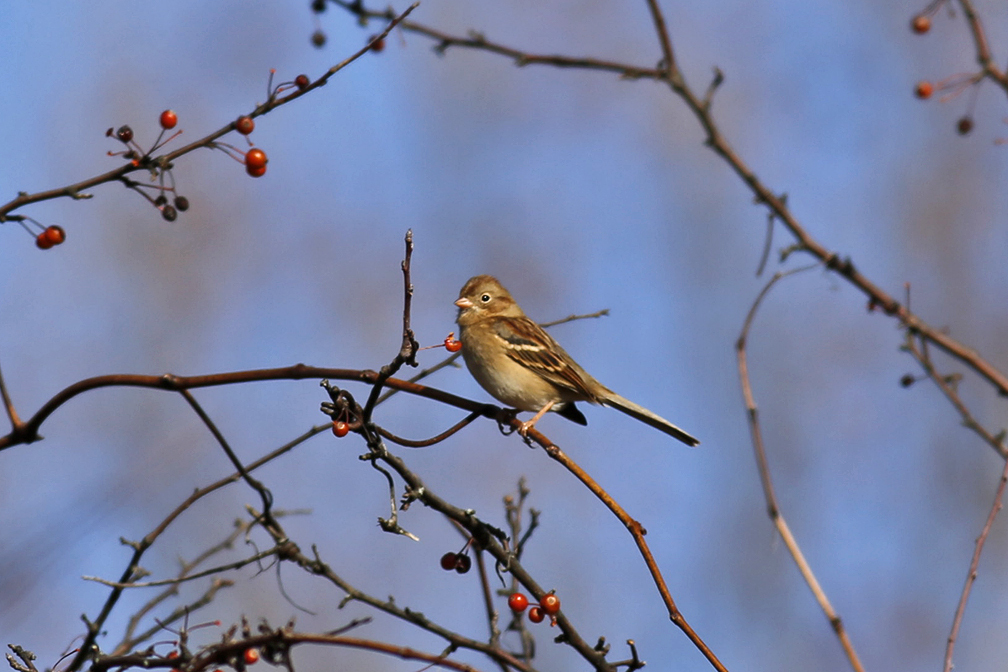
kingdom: Animalia
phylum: Chordata
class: Aves
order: Passeriformes
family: Passerellidae
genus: Spizella
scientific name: Spizella pusilla
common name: Field sparrow
